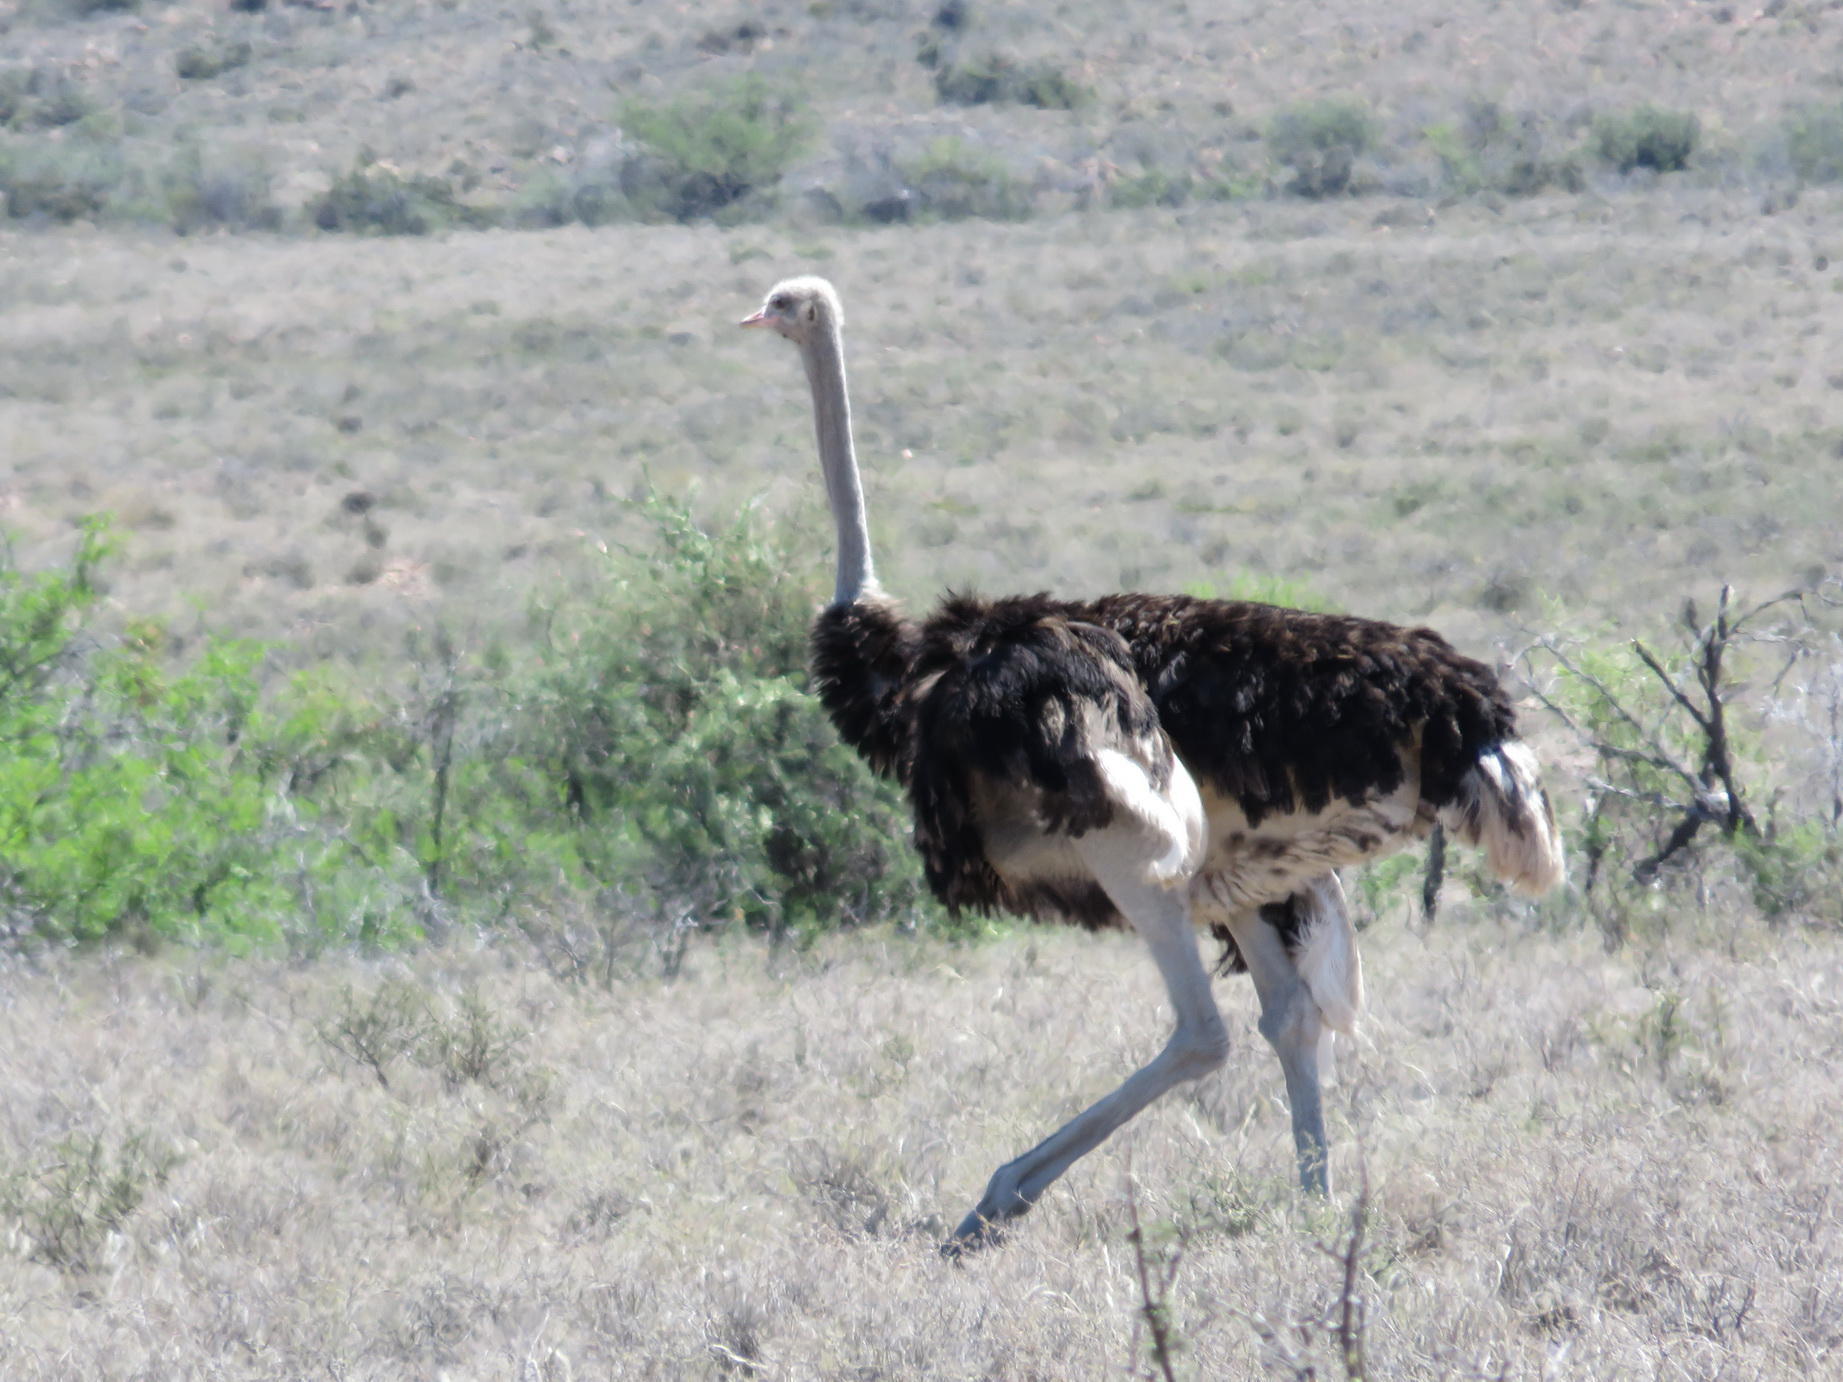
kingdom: Animalia
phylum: Chordata
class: Aves
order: Struthioniformes
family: Struthionidae
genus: Struthio
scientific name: Struthio camelus
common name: Common ostrich
